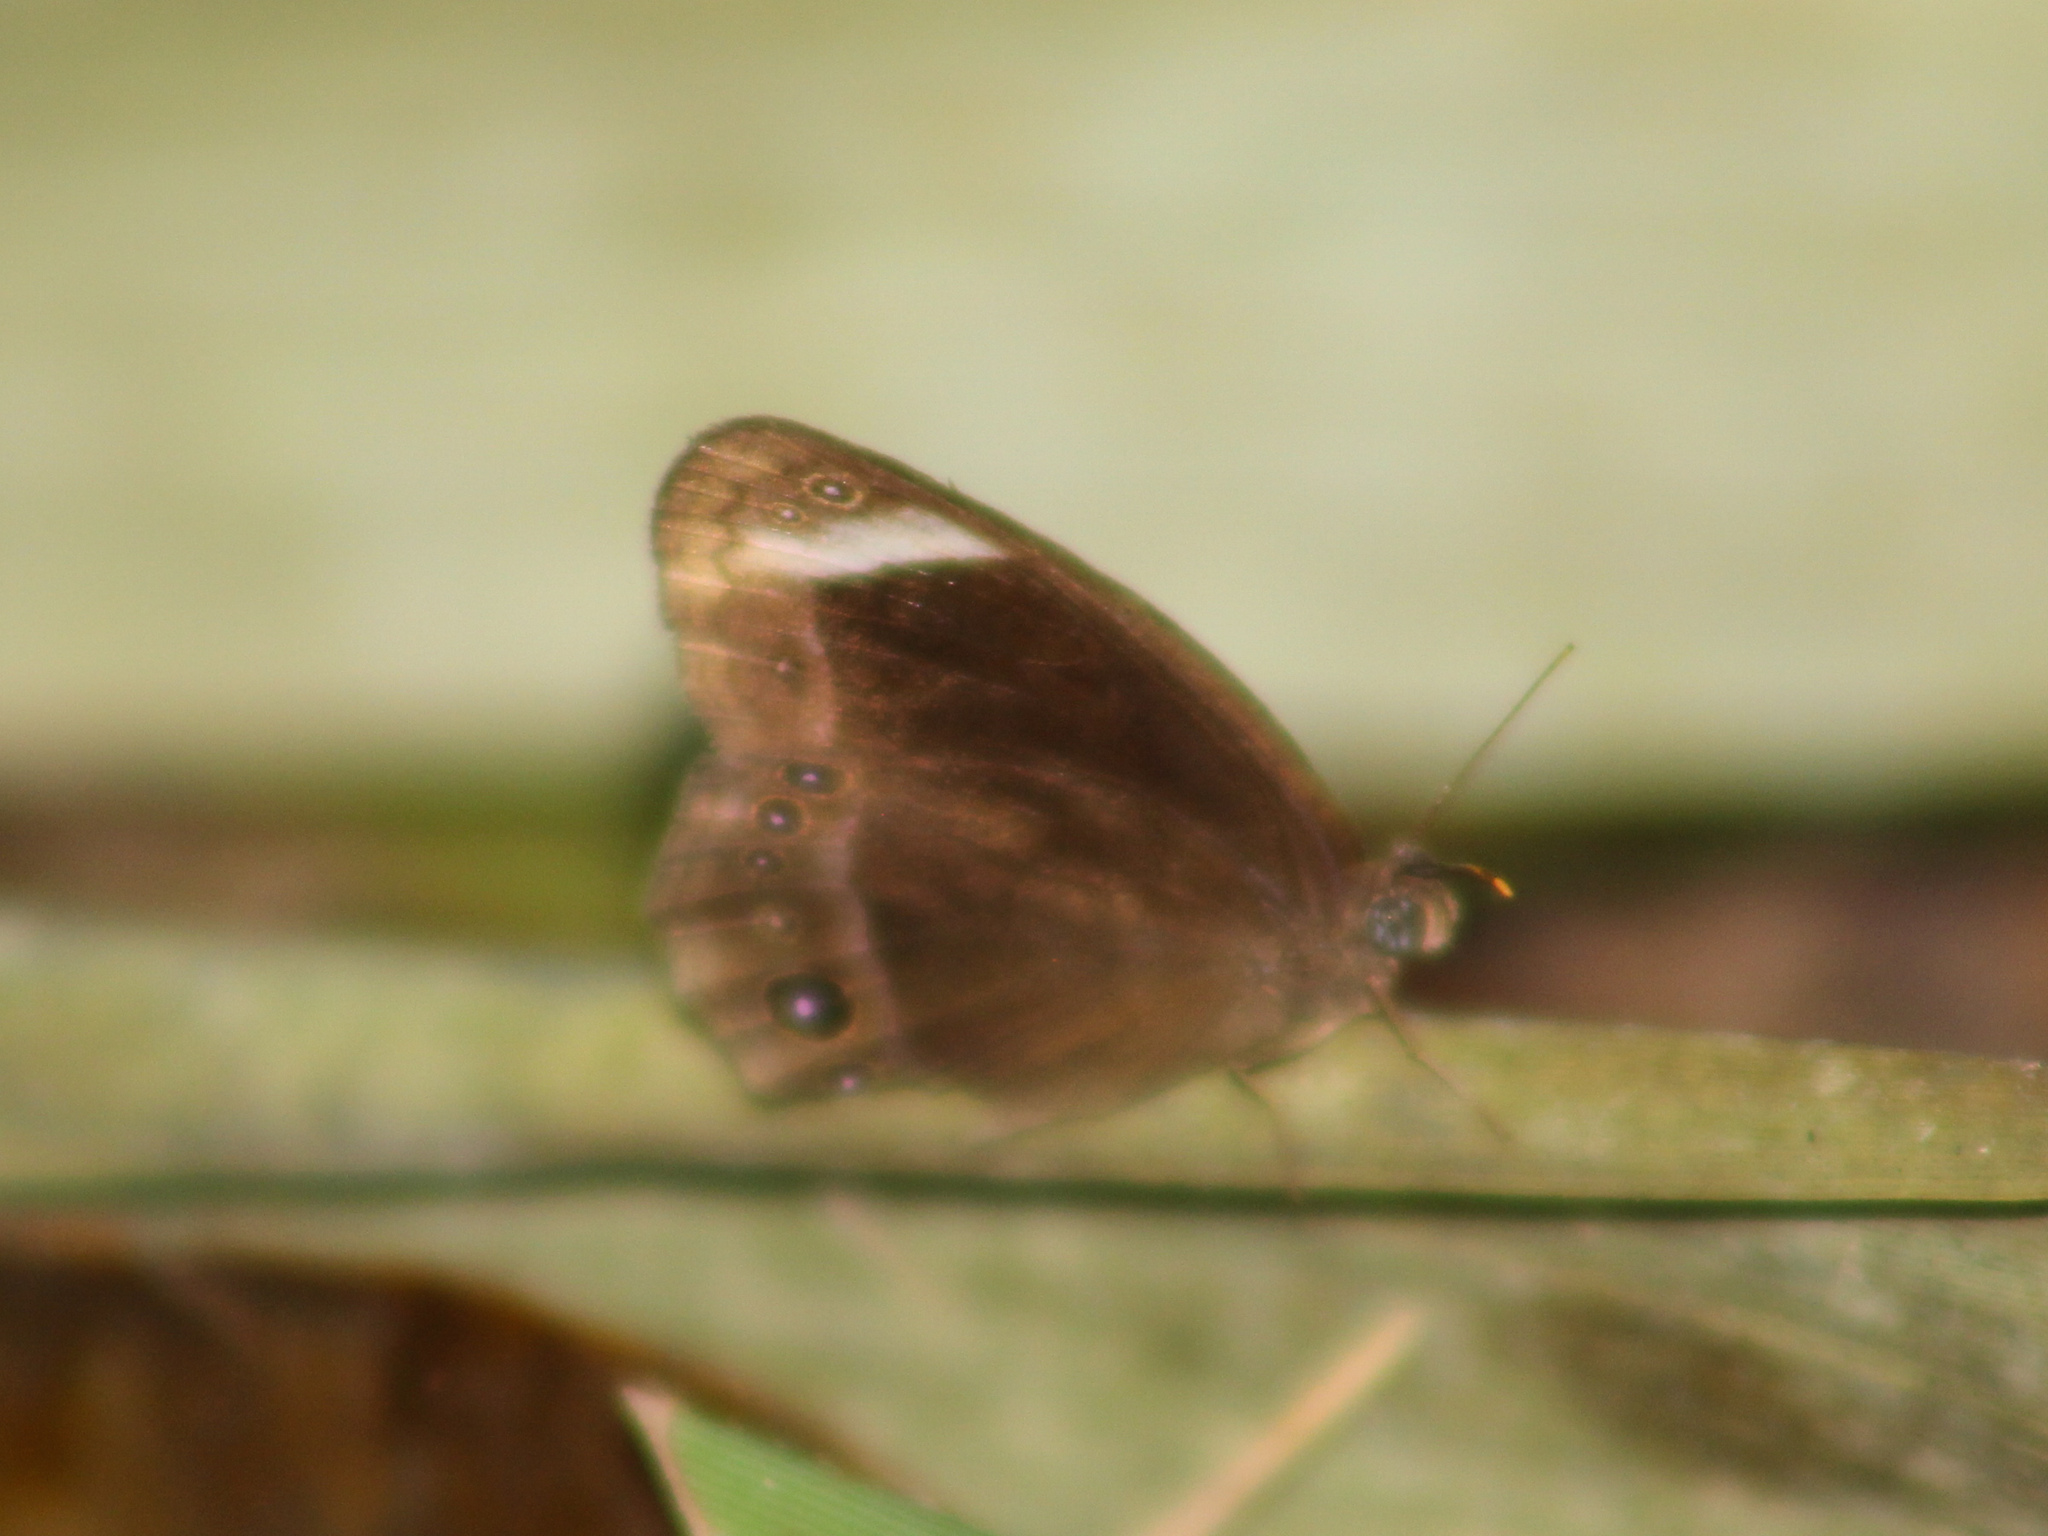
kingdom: Animalia
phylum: Arthropoda
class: Insecta
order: Lepidoptera
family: Nymphalidae
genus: Mycalesis
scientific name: Mycalesis anaxioides
